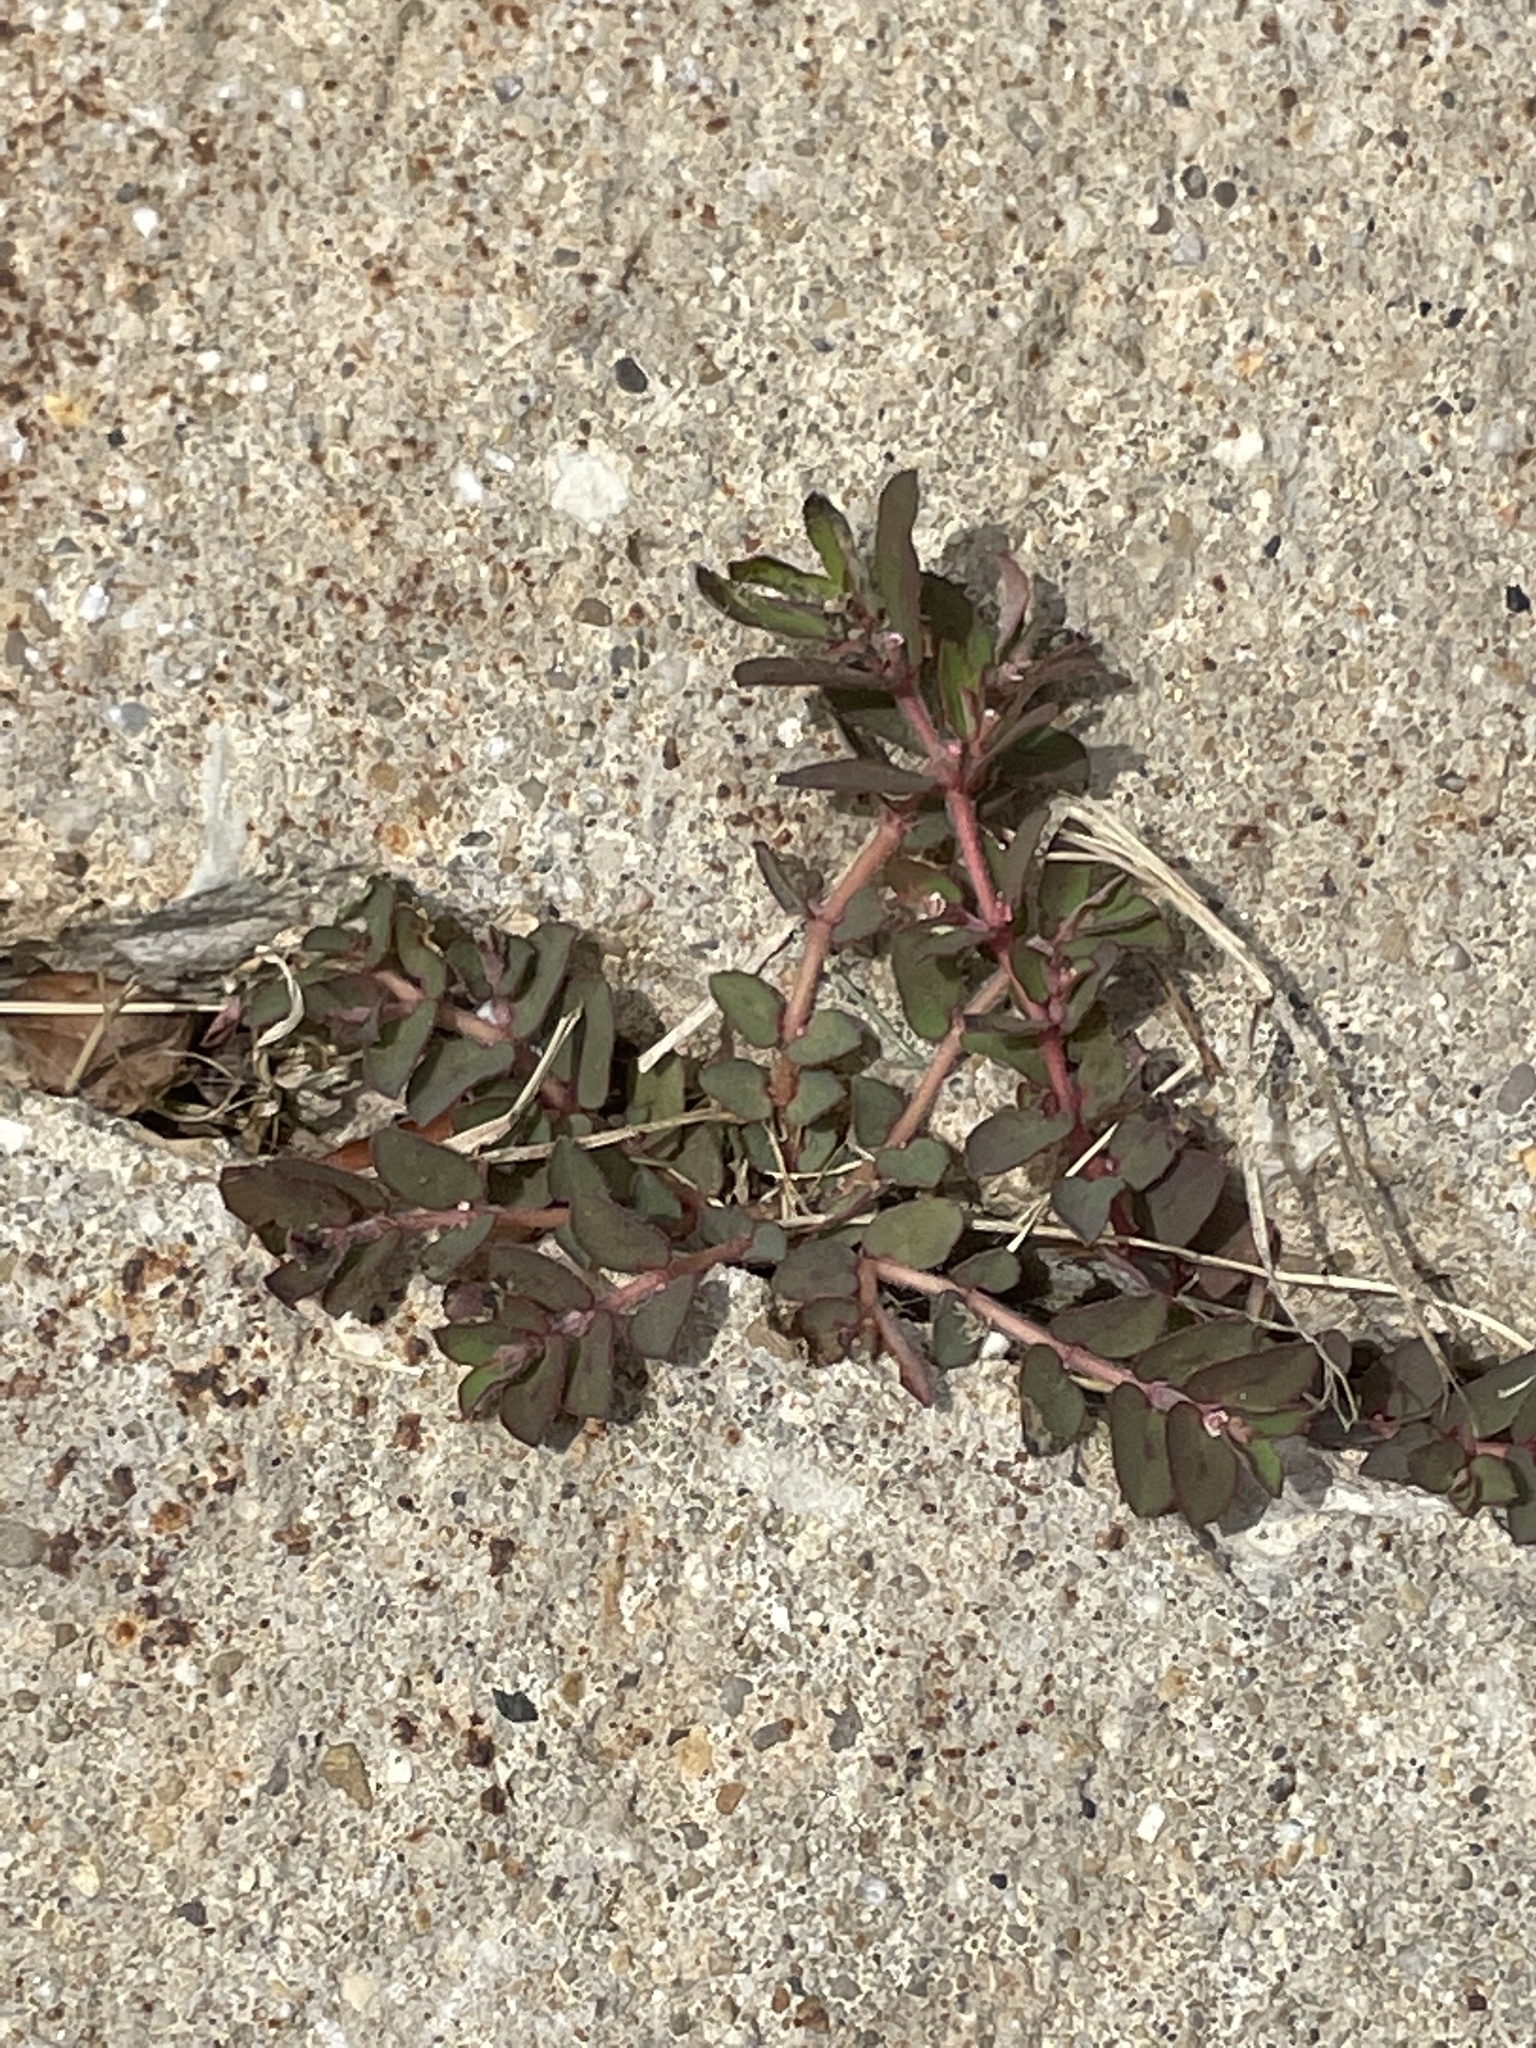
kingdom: Plantae
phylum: Tracheophyta
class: Magnoliopsida
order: Malpighiales
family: Euphorbiaceae
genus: Euphorbia
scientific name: Euphorbia maculata
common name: Spotted spurge
